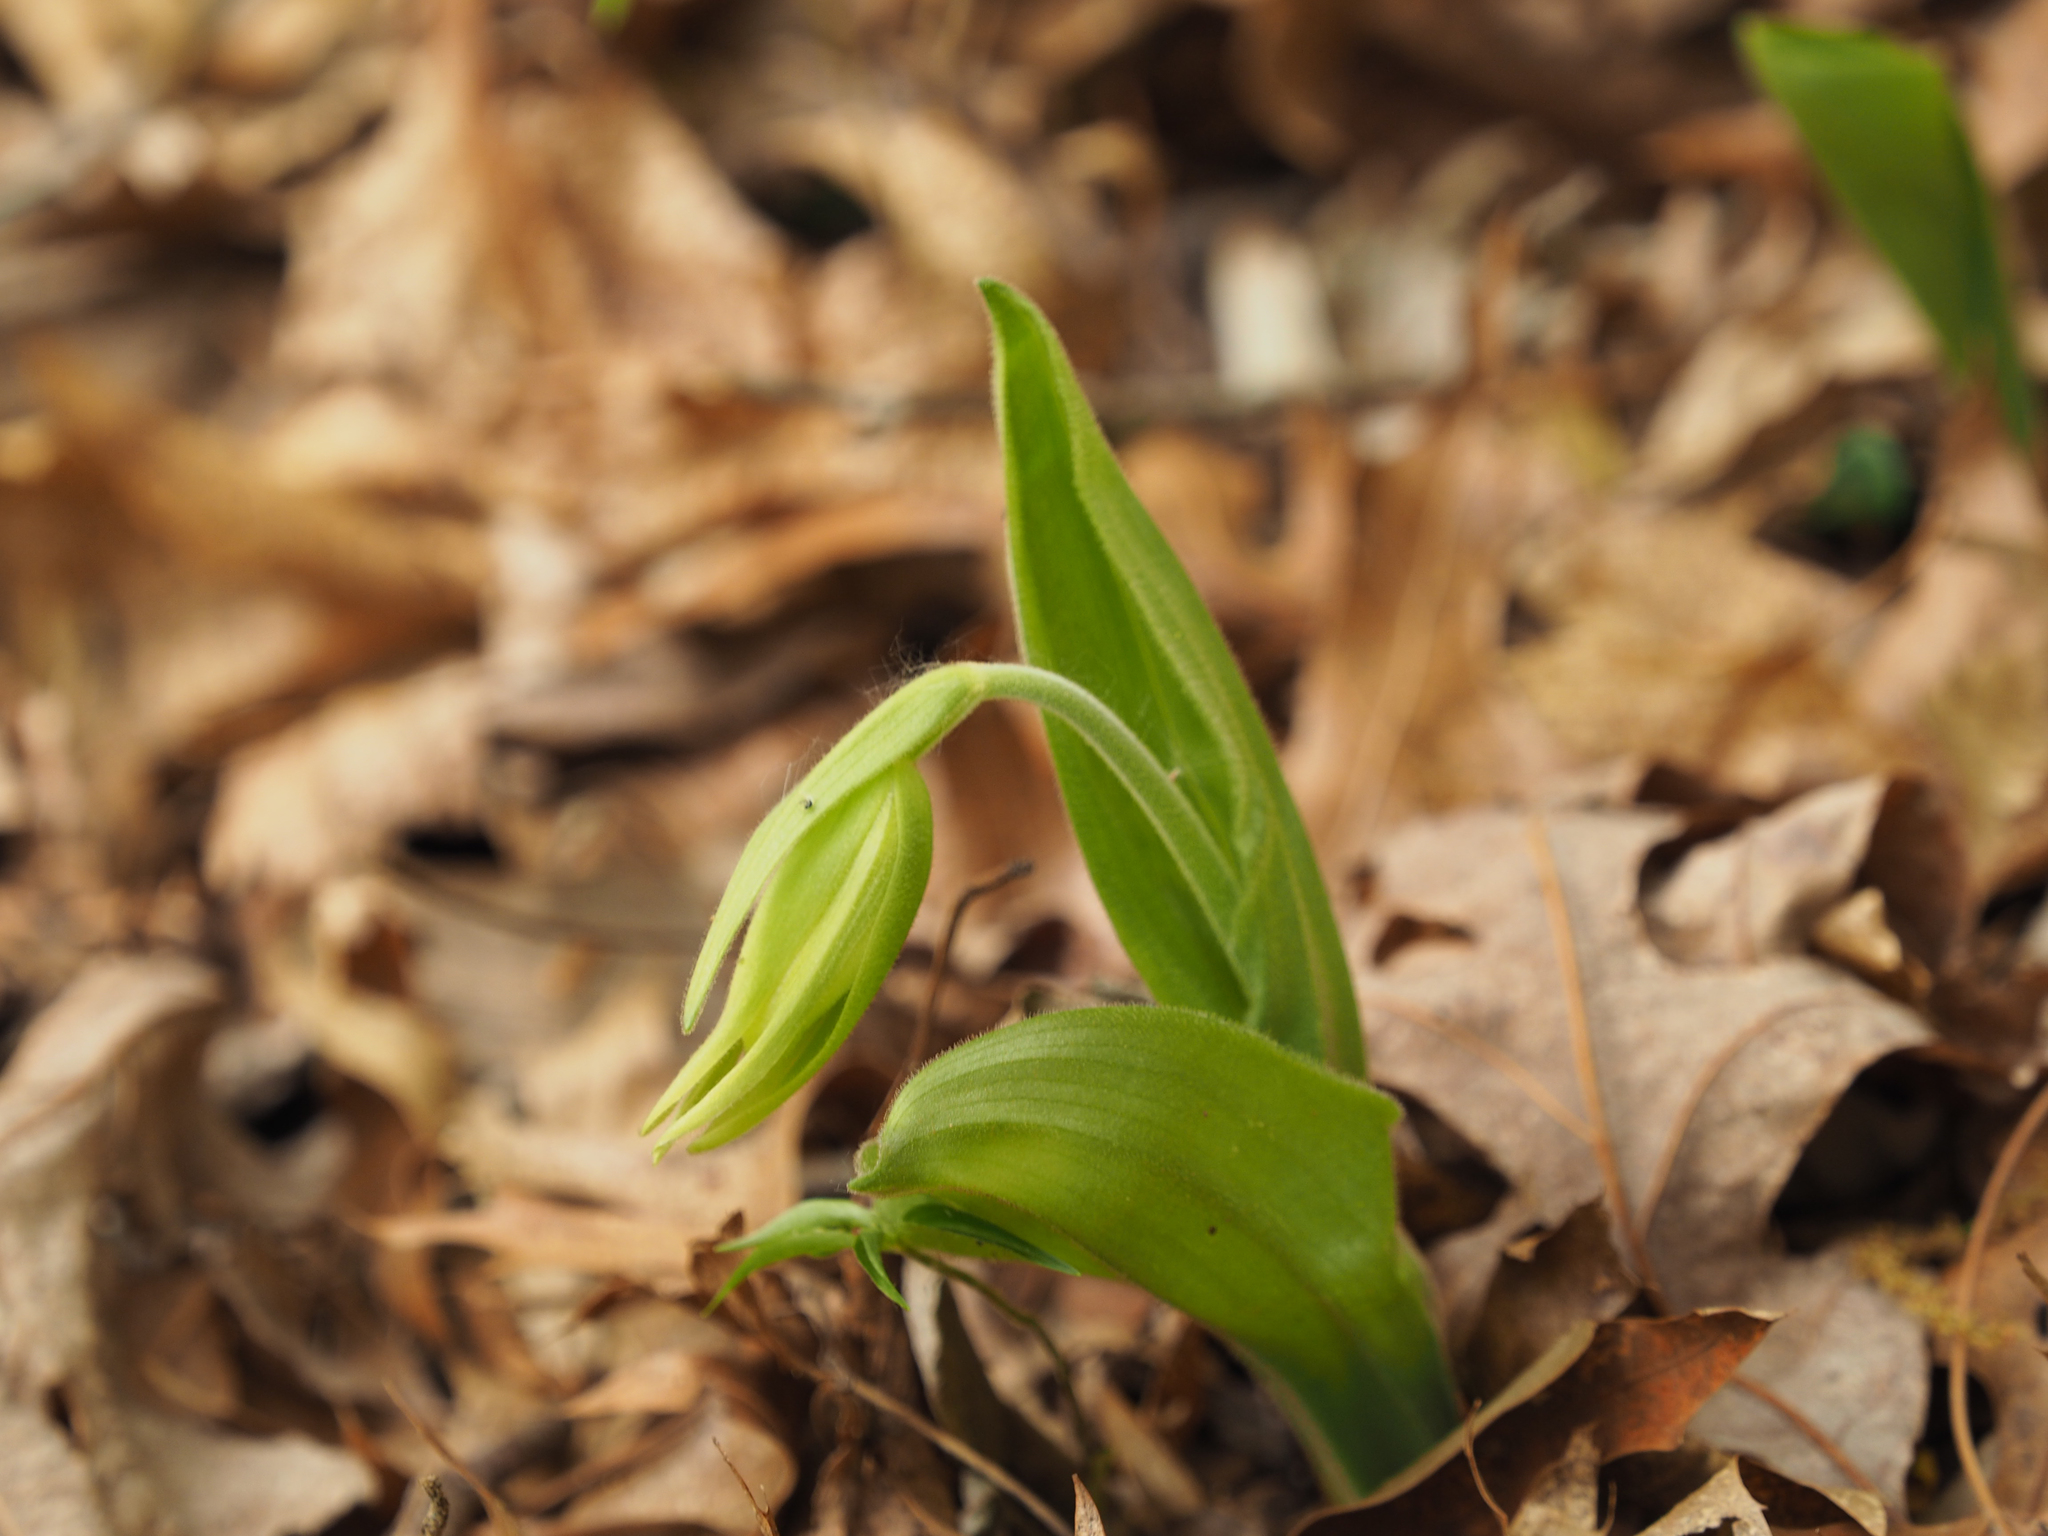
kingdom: Plantae
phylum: Tracheophyta
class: Liliopsida
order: Asparagales
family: Orchidaceae
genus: Cypripedium
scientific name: Cypripedium acaule
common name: Pink lady's-slipper
